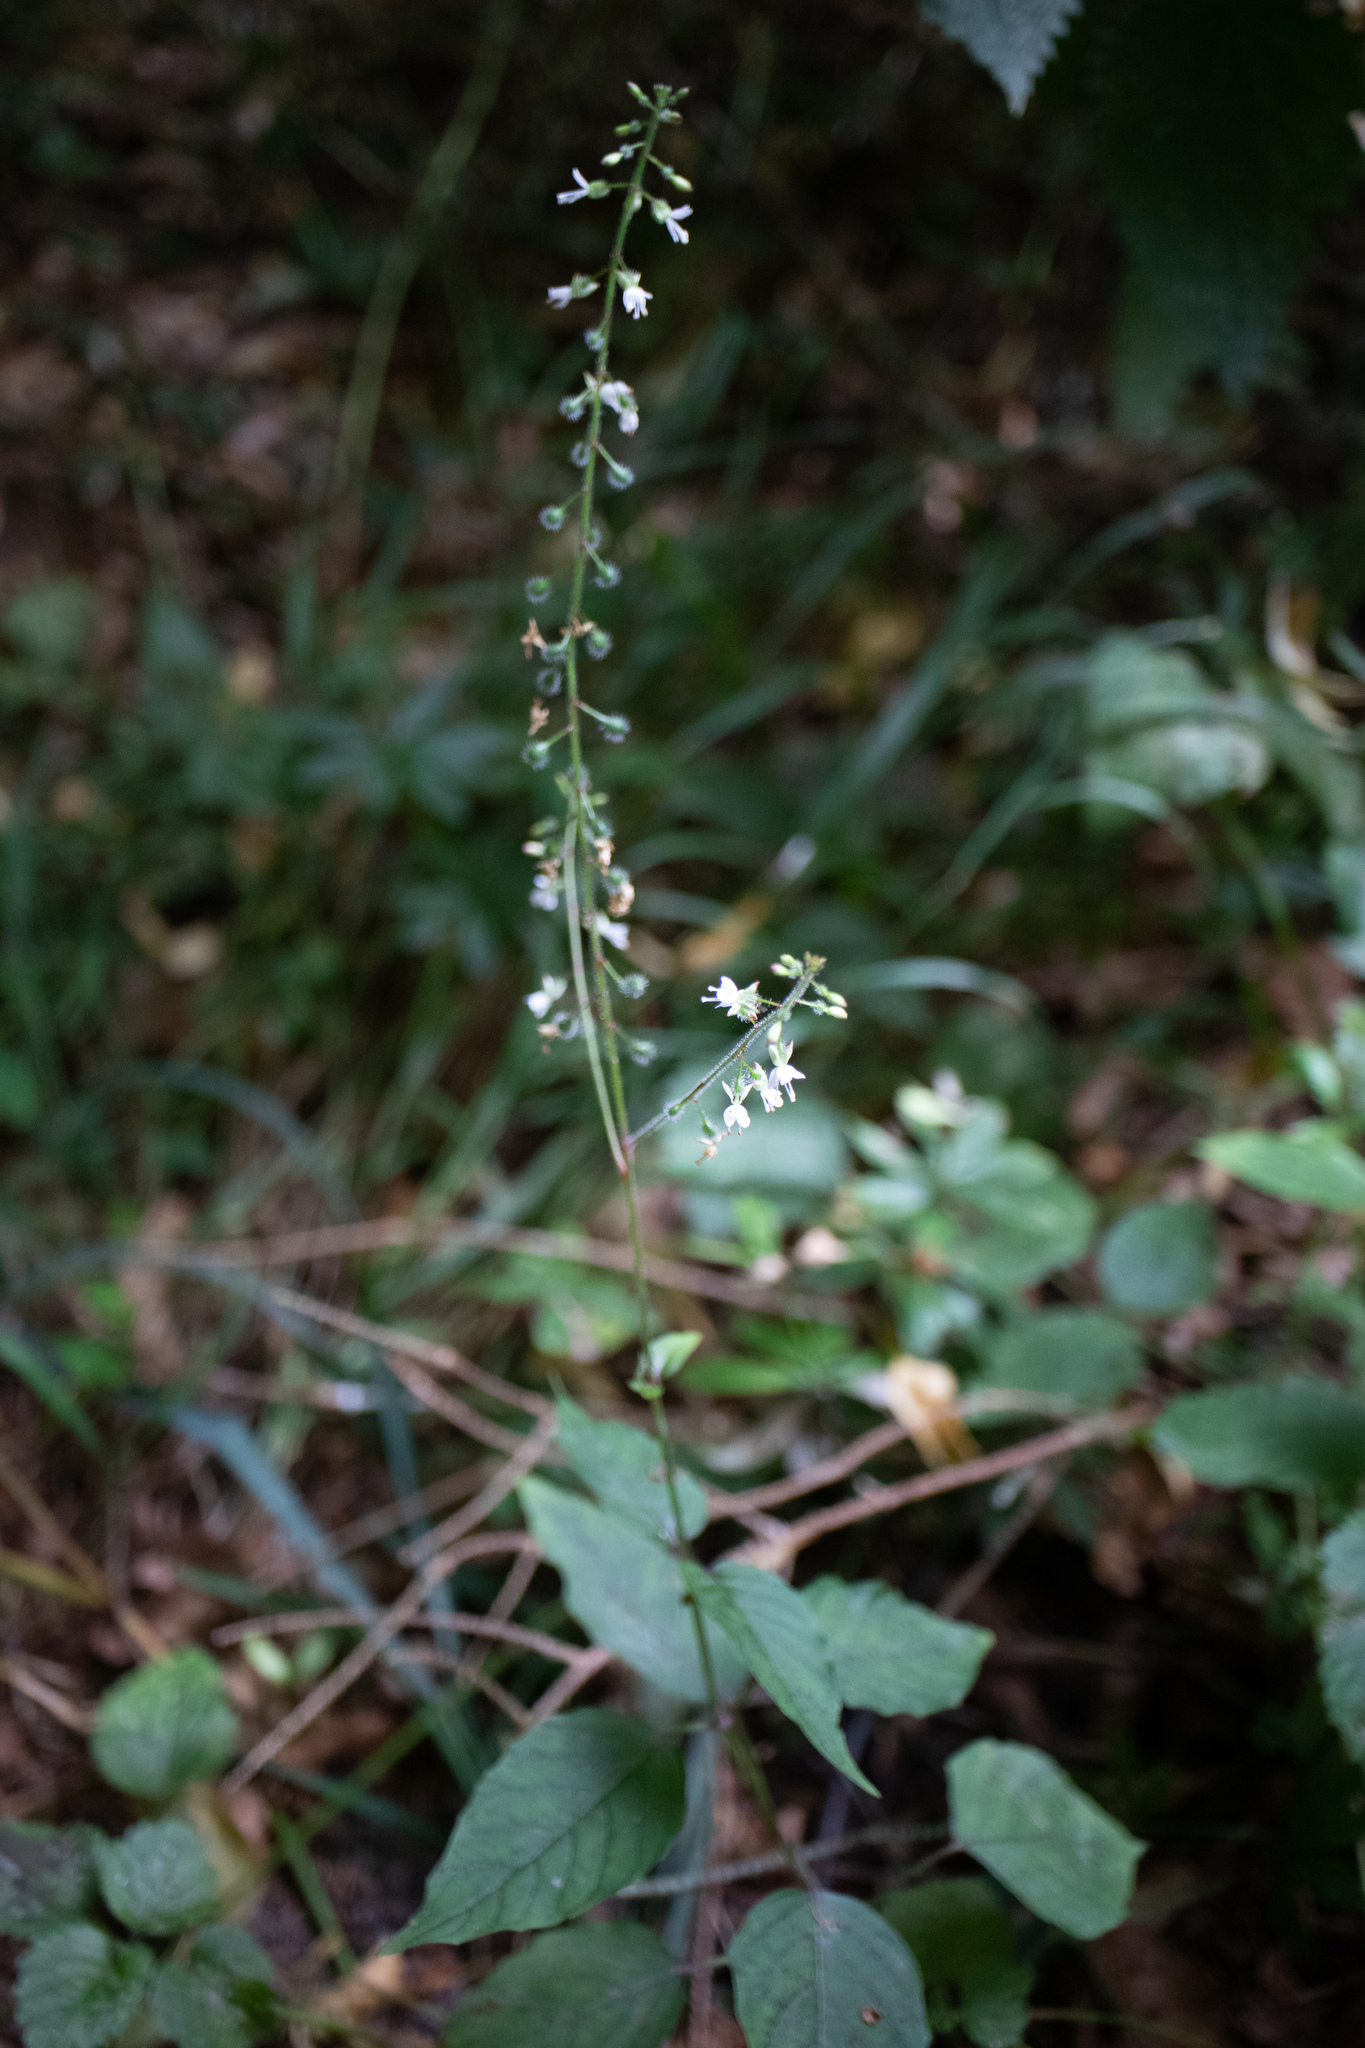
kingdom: Plantae
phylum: Tracheophyta
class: Magnoliopsida
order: Myrtales
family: Onagraceae
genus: Circaea
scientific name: Circaea lutetiana
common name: Enchanter's-nightshade
